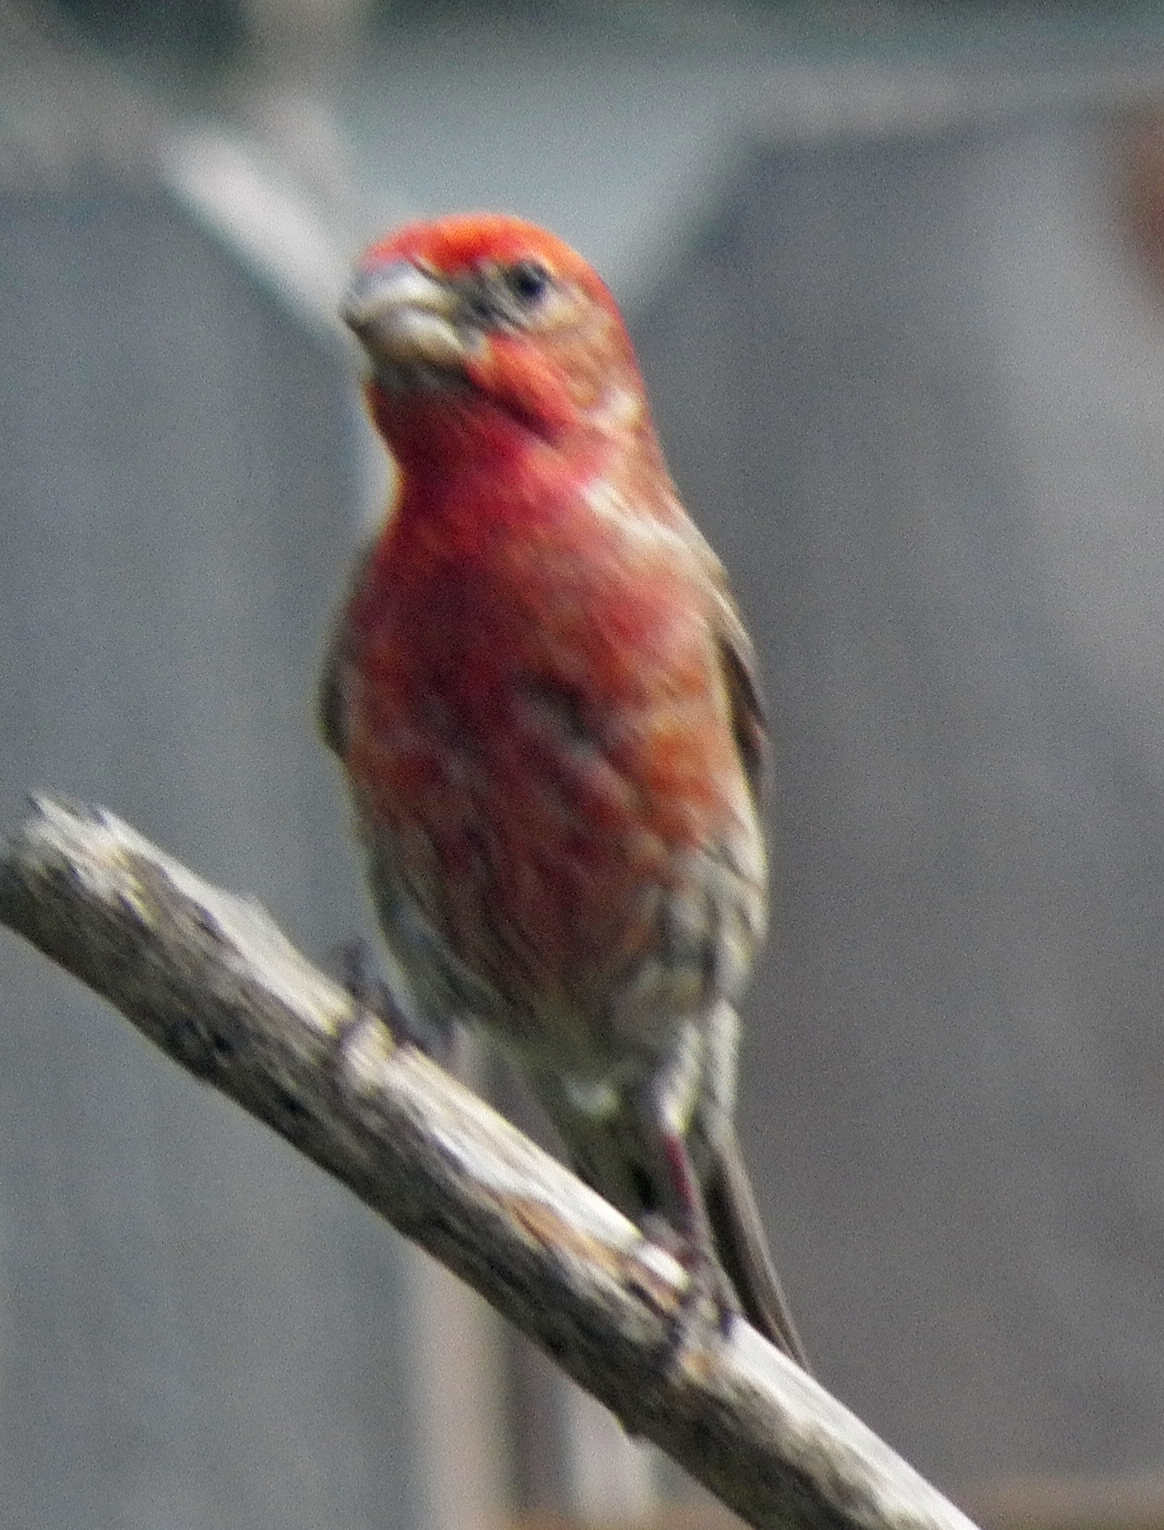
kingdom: Animalia
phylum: Chordata
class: Aves
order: Passeriformes
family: Fringillidae
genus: Haemorhous
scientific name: Haemorhous mexicanus
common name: House finch
